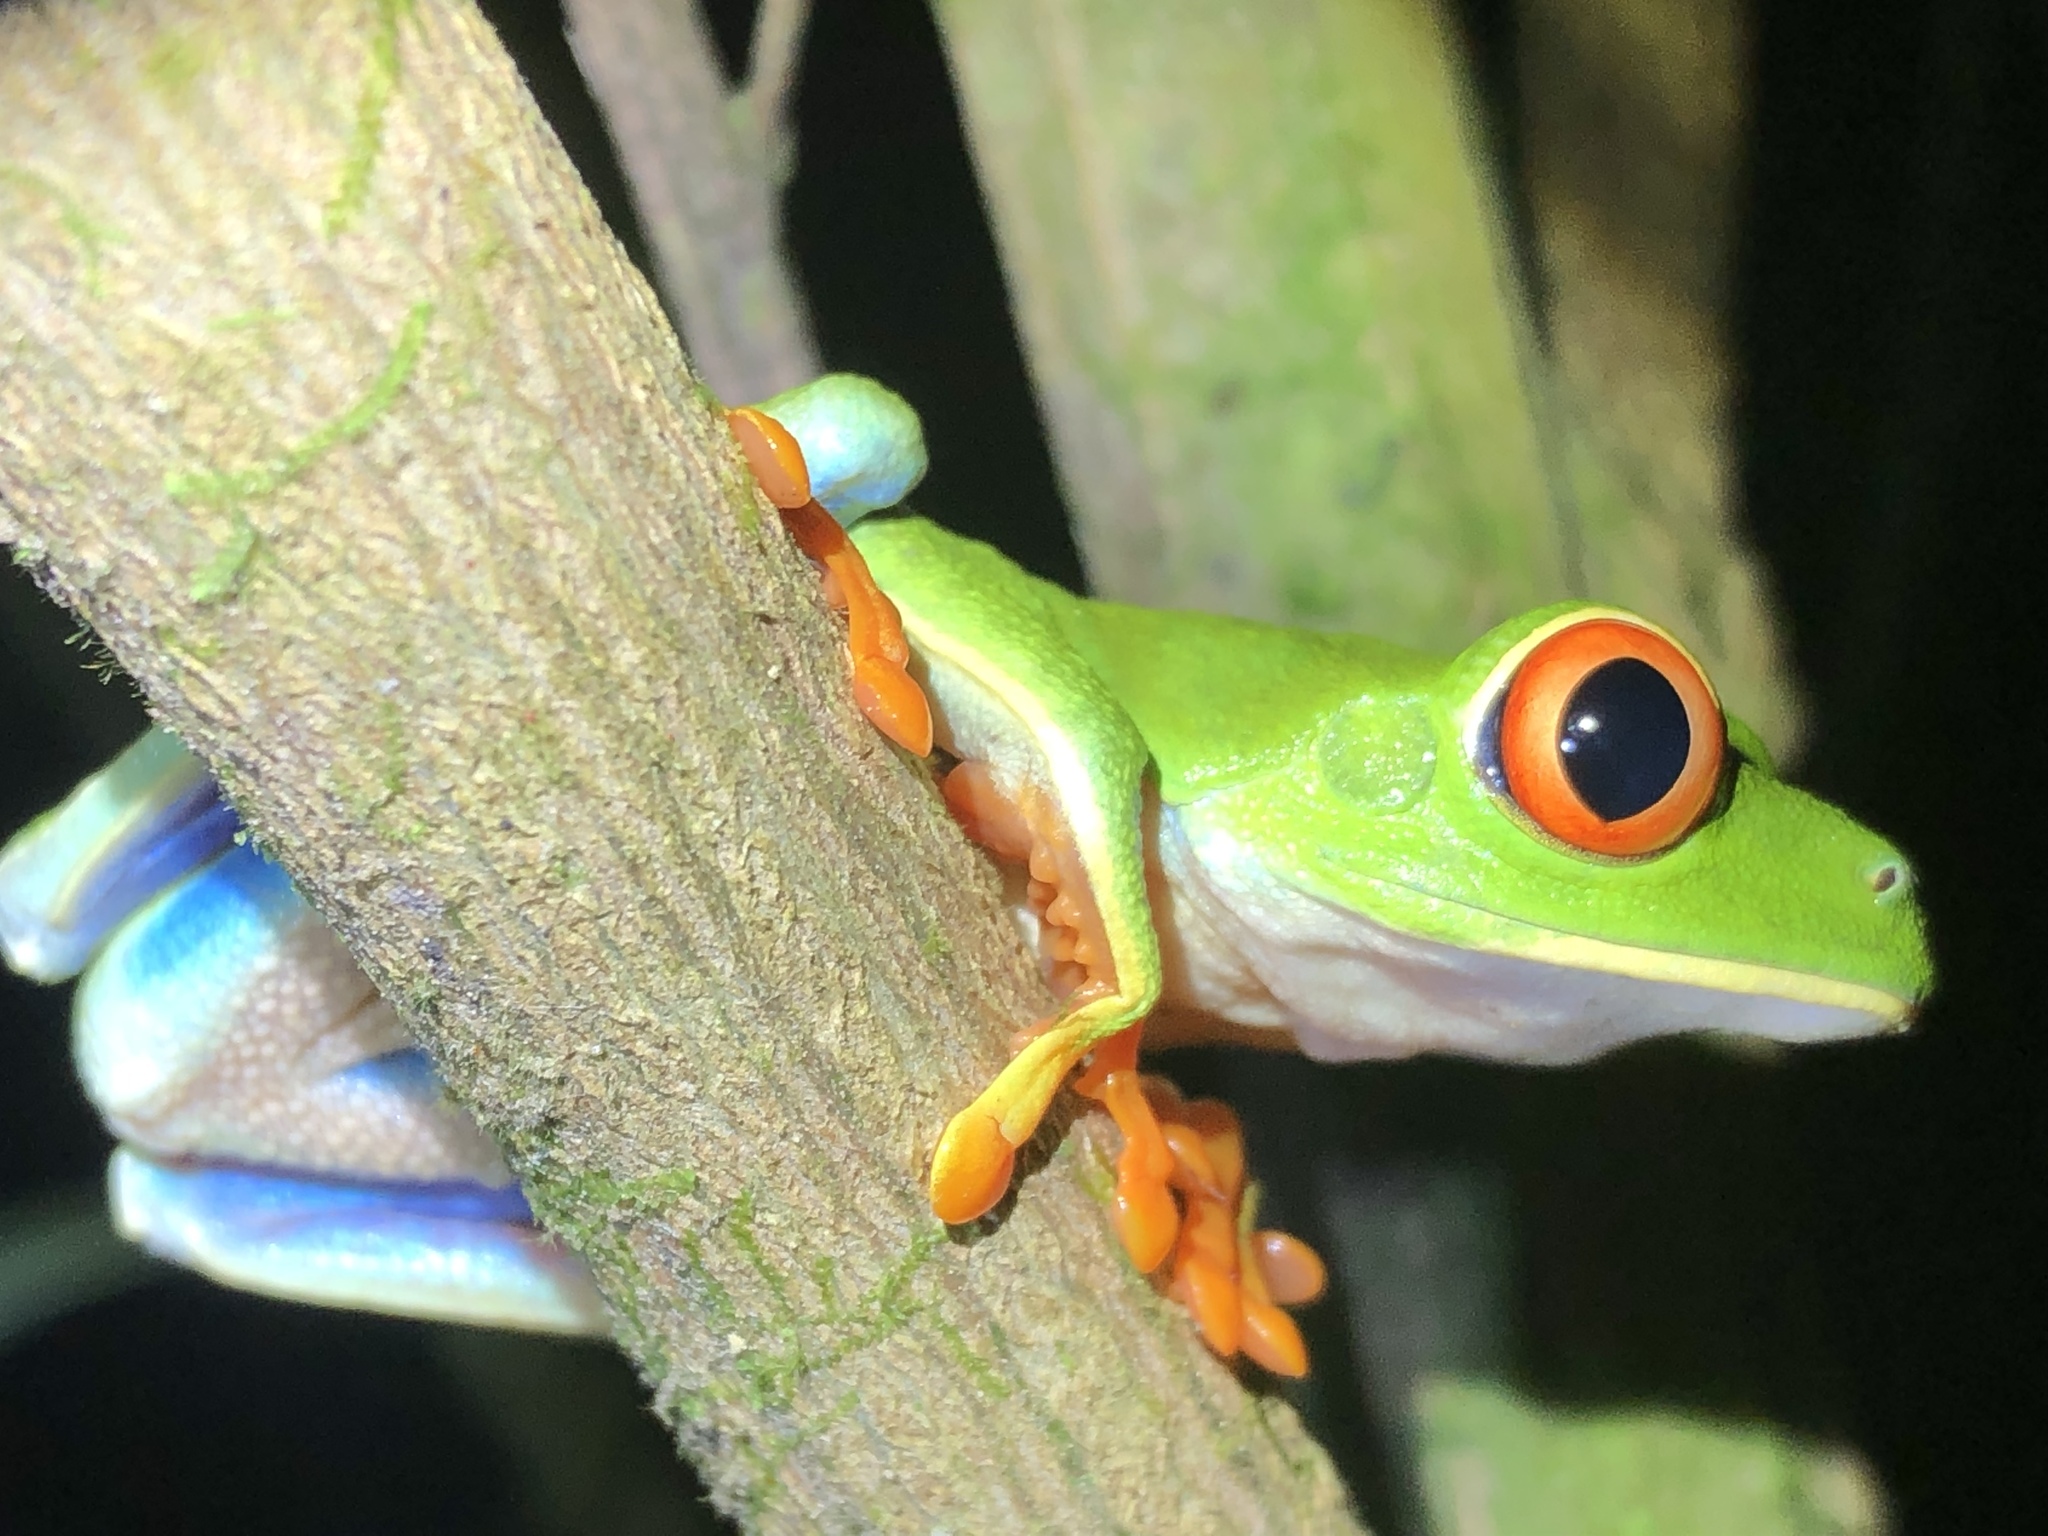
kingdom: Animalia
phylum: Chordata
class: Amphibia
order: Anura
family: Phyllomedusidae
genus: Agalychnis
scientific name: Agalychnis callidryas
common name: Red-eyed treefrog
